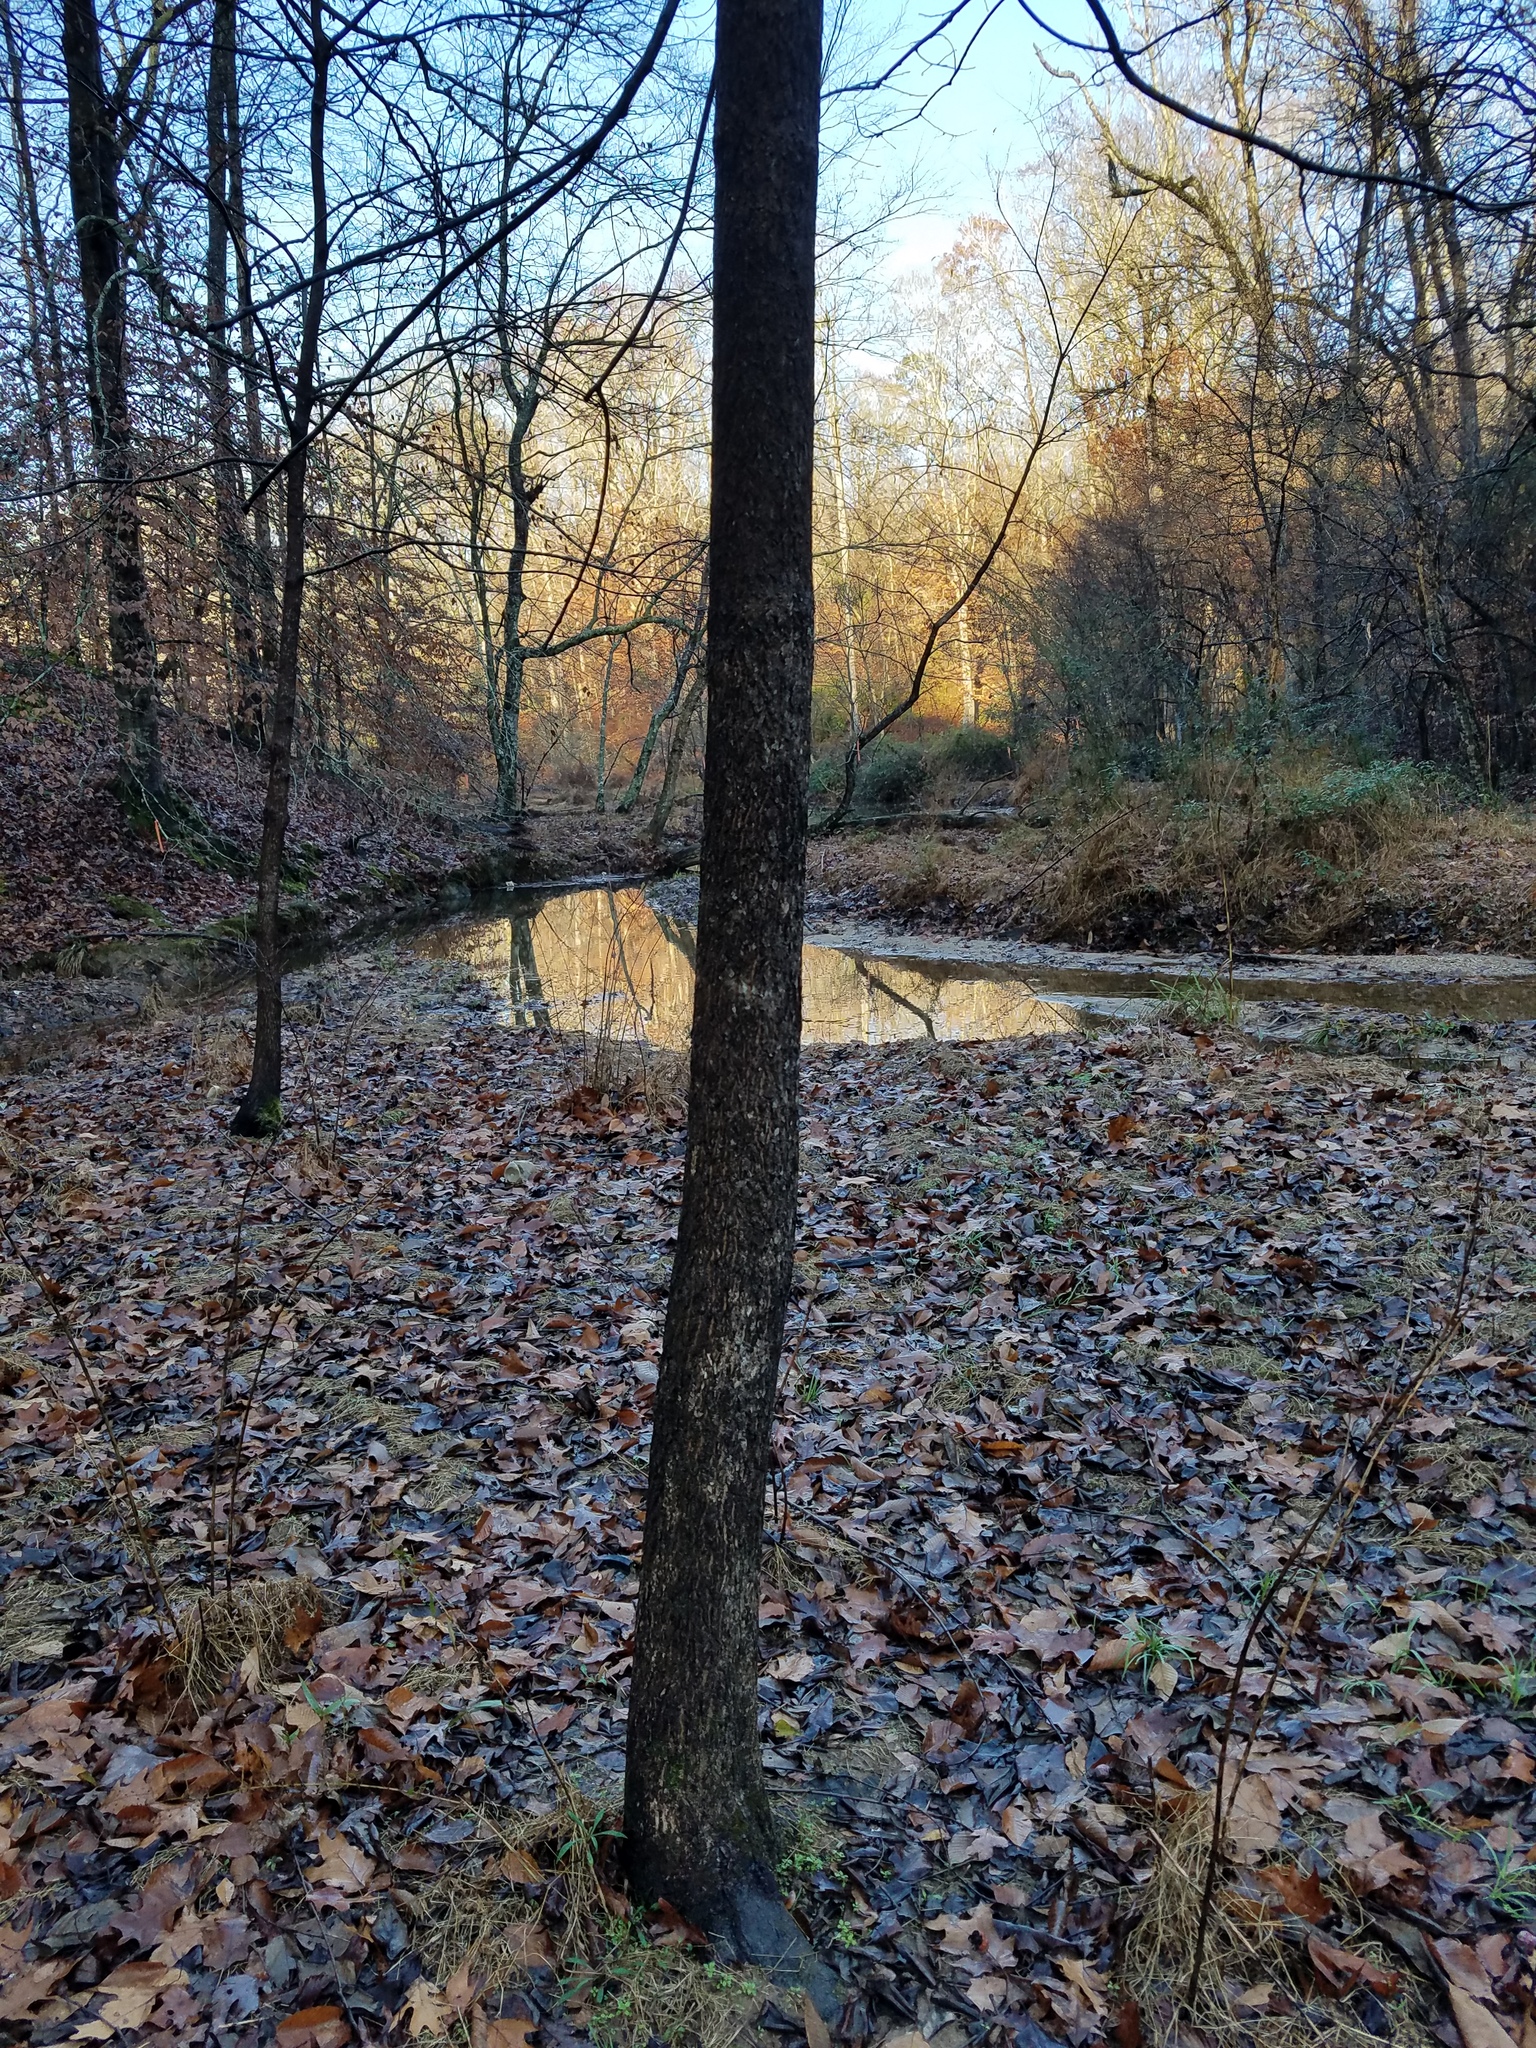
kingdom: Plantae
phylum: Tracheophyta
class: Magnoliopsida
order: Ericales
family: Ebenaceae
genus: Diospyros
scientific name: Diospyros virginiana
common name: Persimmon
